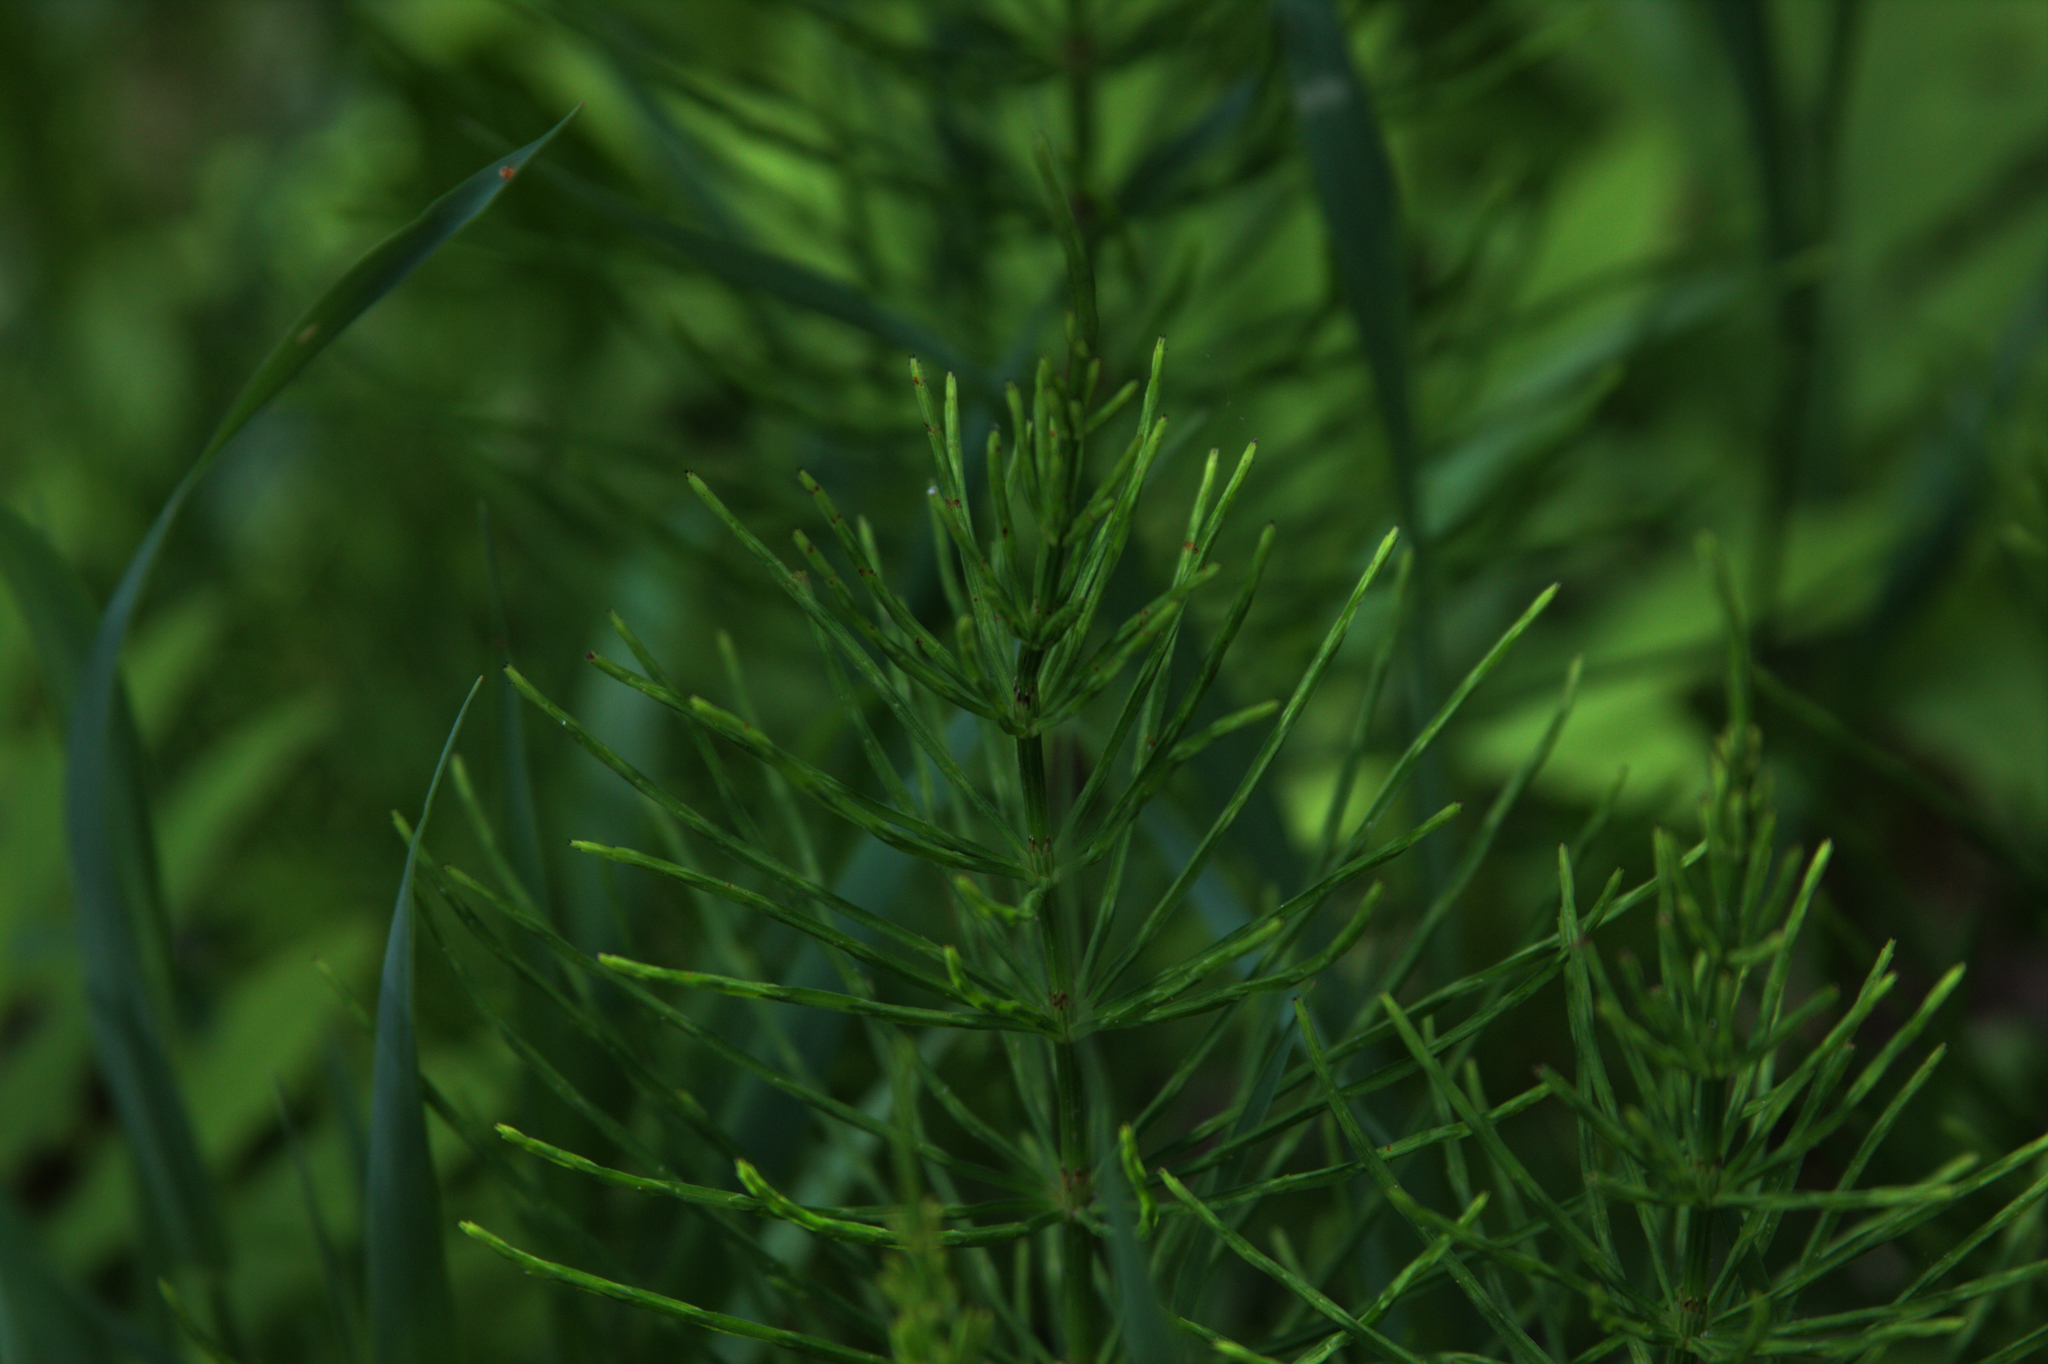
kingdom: Plantae
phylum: Tracheophyta
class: Polypodiopsida
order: Equisetales
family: Equisetaceae
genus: Equisetum
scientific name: Equisetum arvense
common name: Field horsetail
